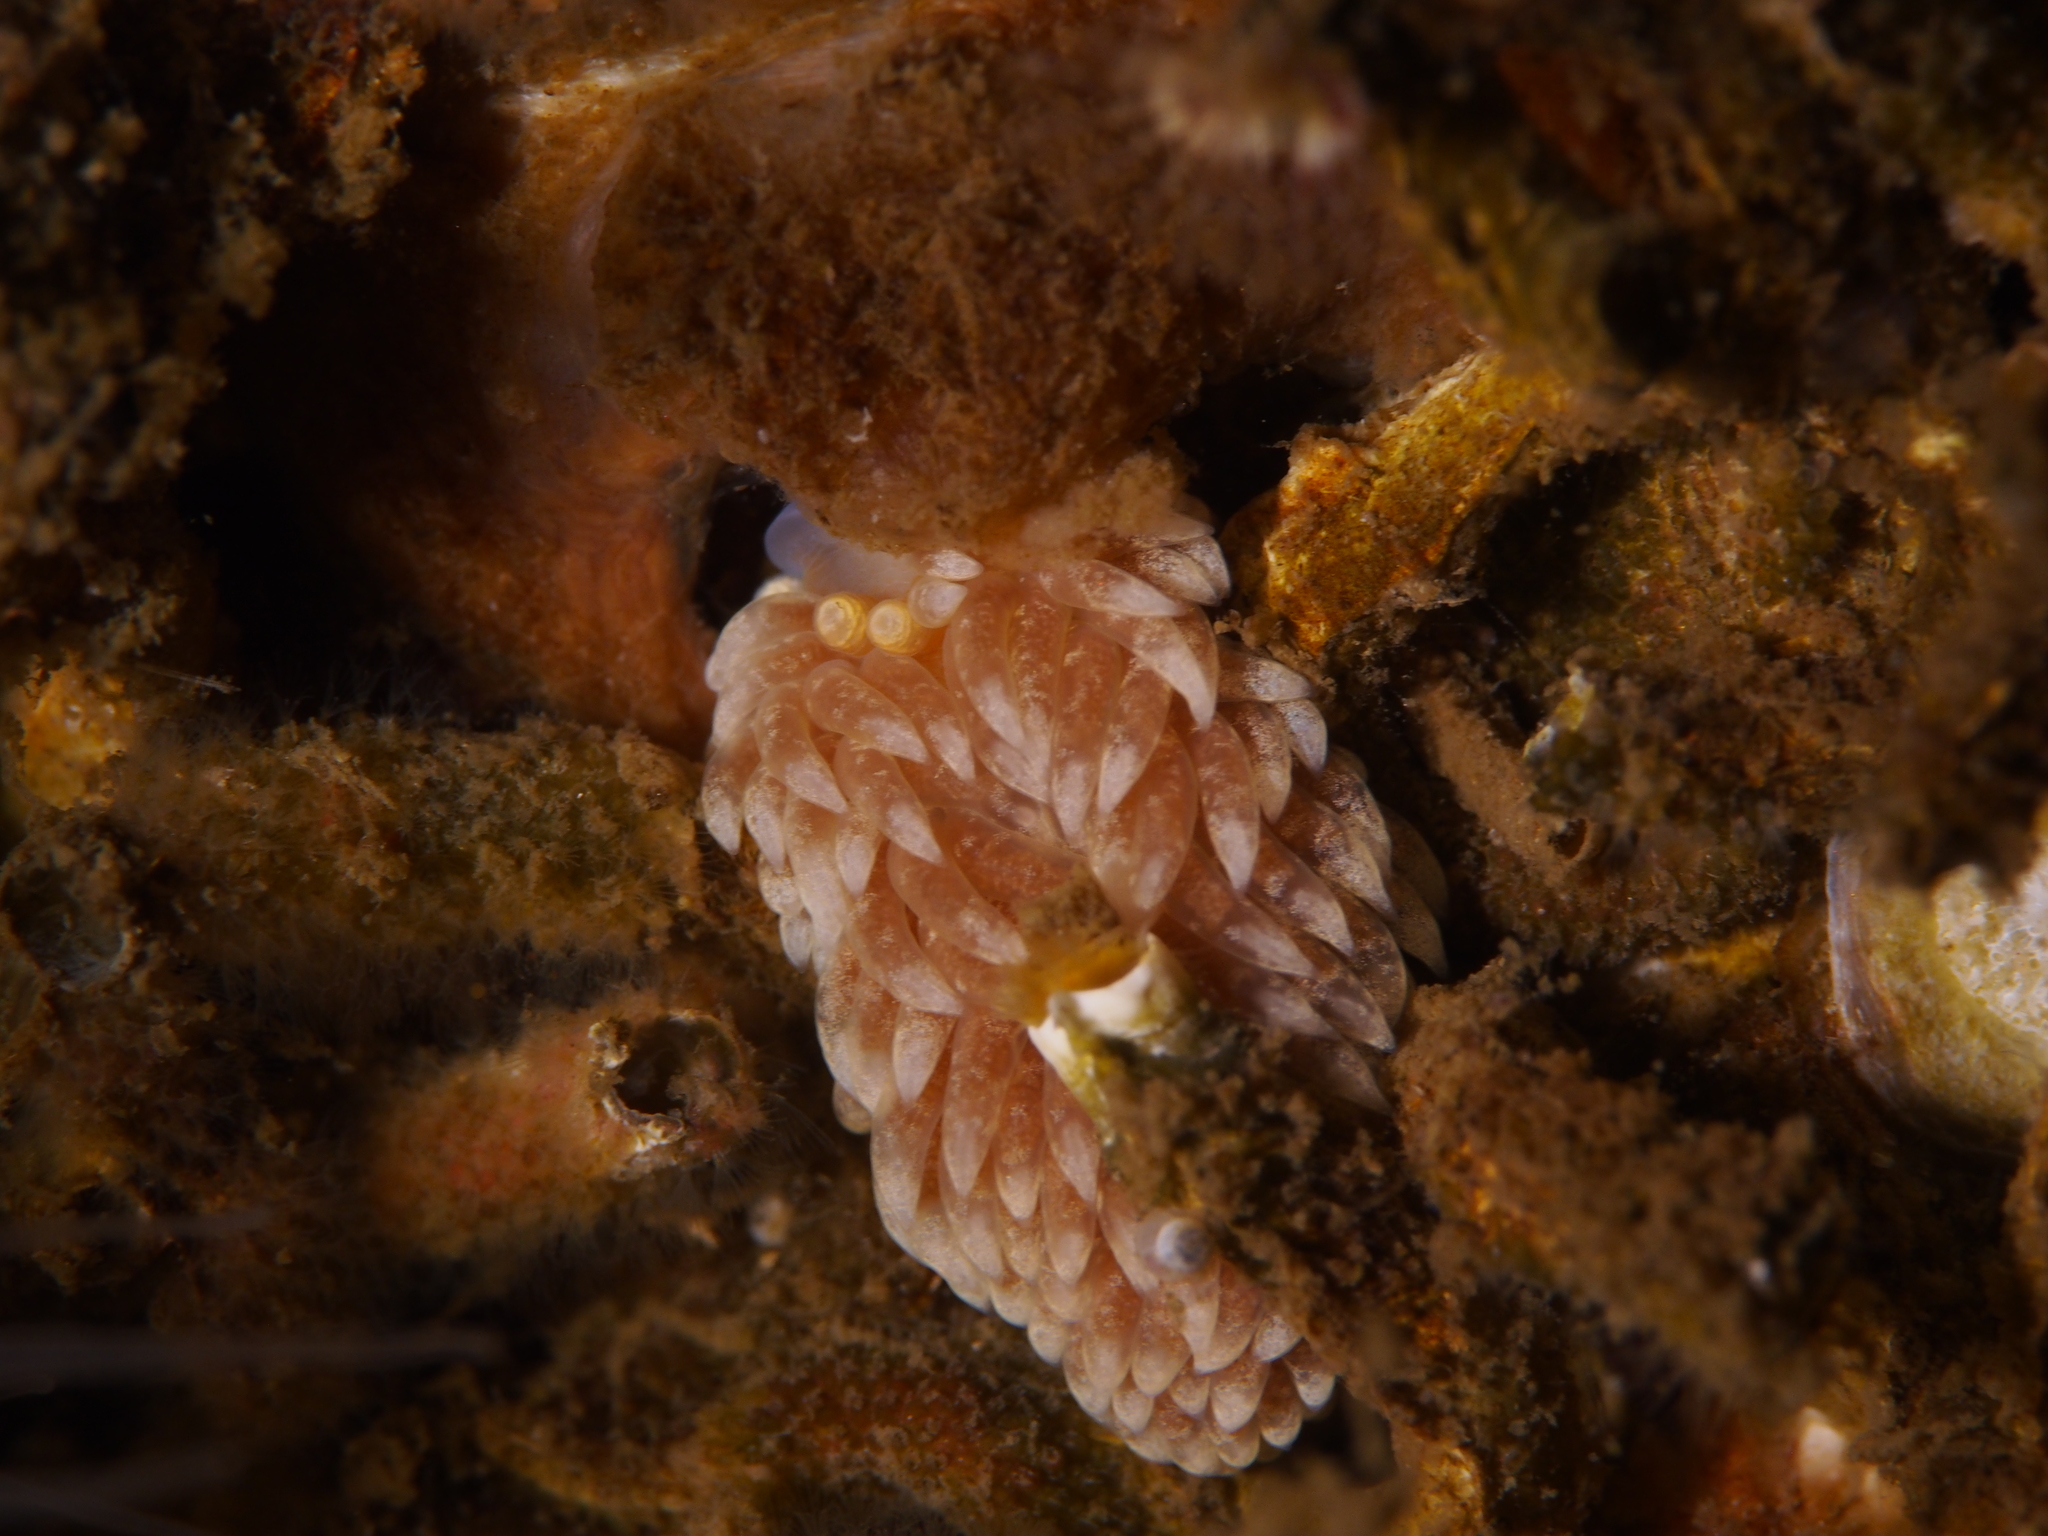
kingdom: Animalia
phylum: Mollusca
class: Gastropoda
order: Nudibranchia
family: Aeolidiidae
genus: Aeolidiella
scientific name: Aeolidiella glauca
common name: Orange-brown aeolid
